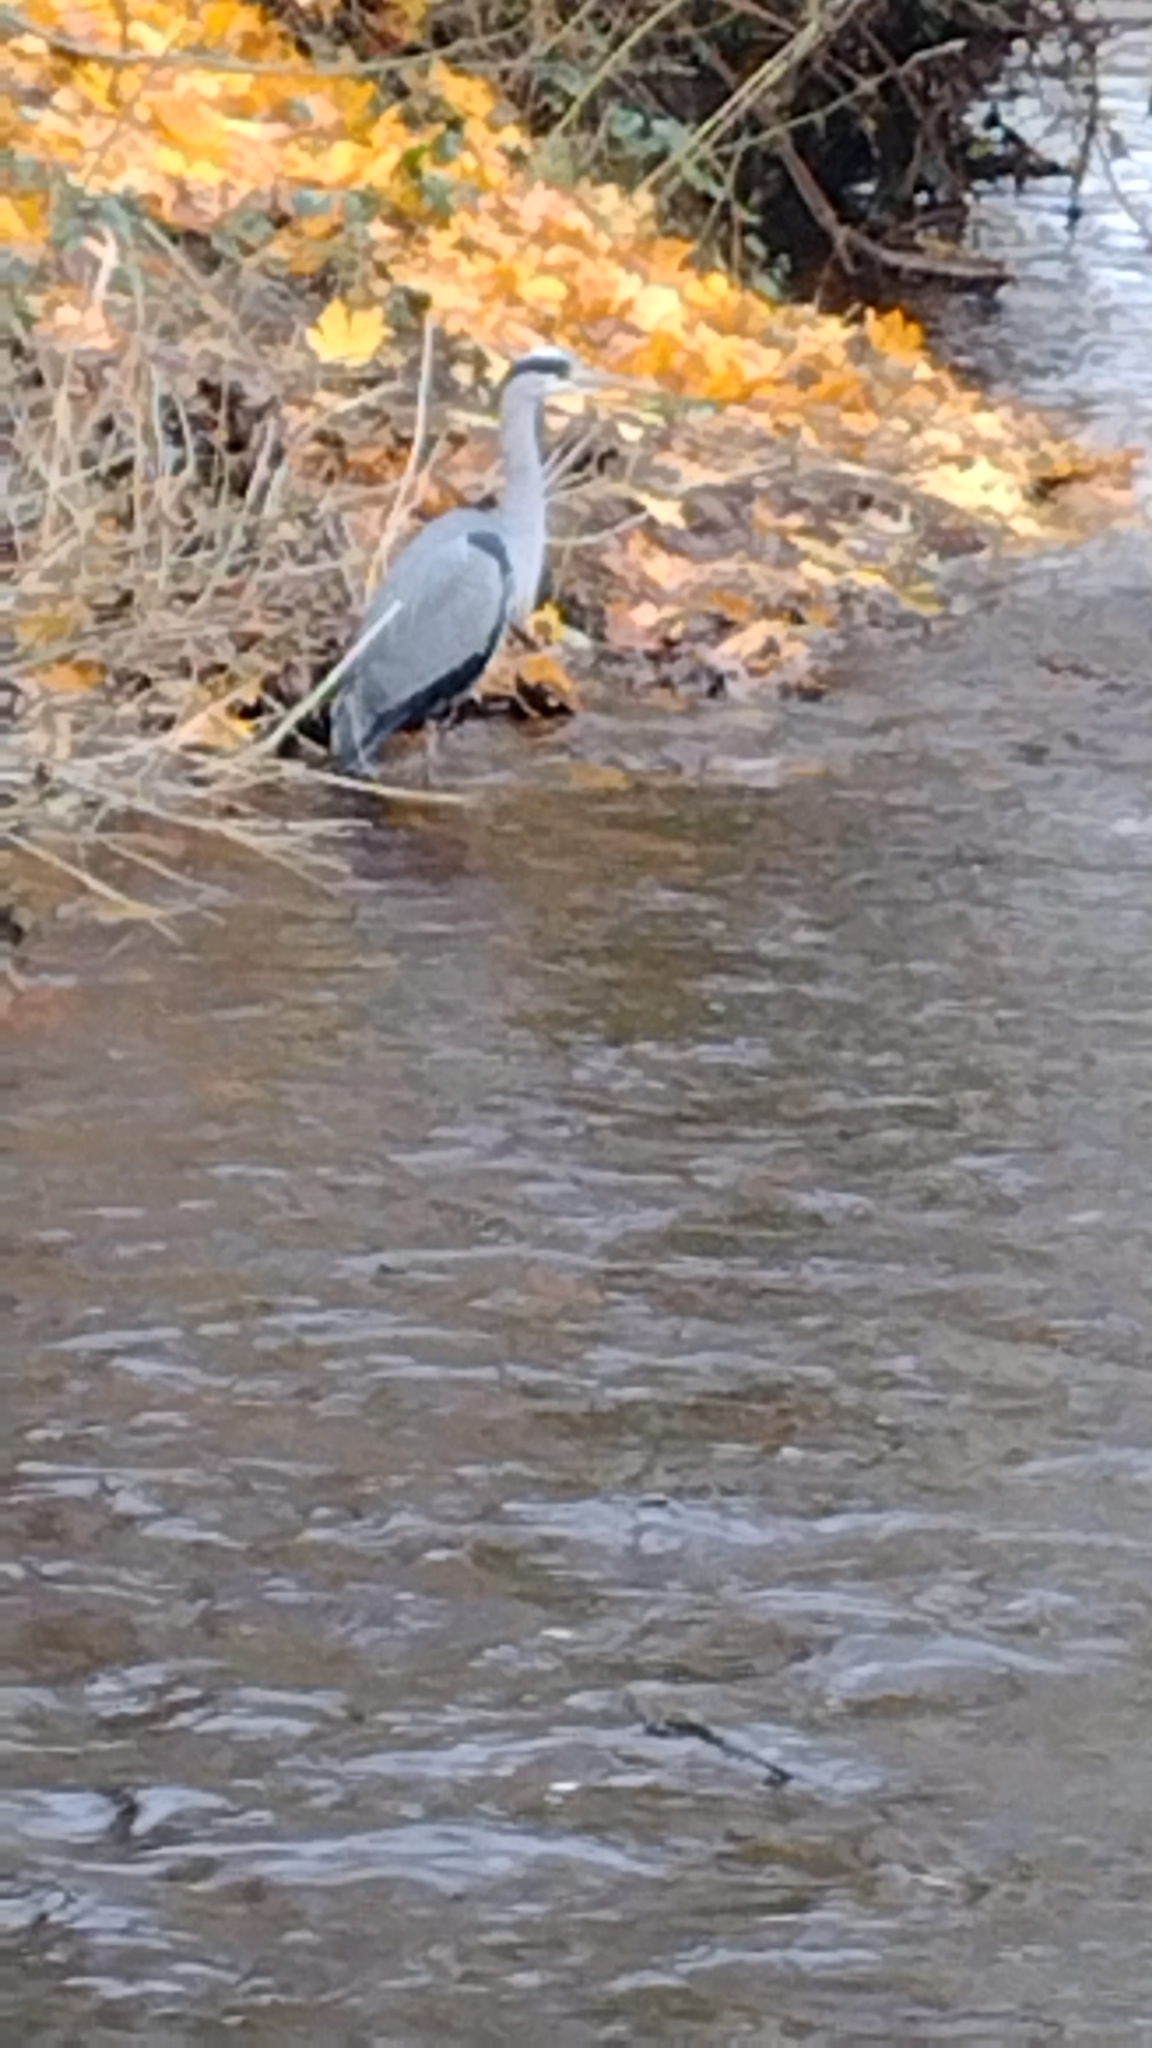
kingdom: Animalia
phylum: Chordata
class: Aves
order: Pelecaniformes
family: Ardeidae
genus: Ardea
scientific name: Ardea cinerea
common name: Grey heron
